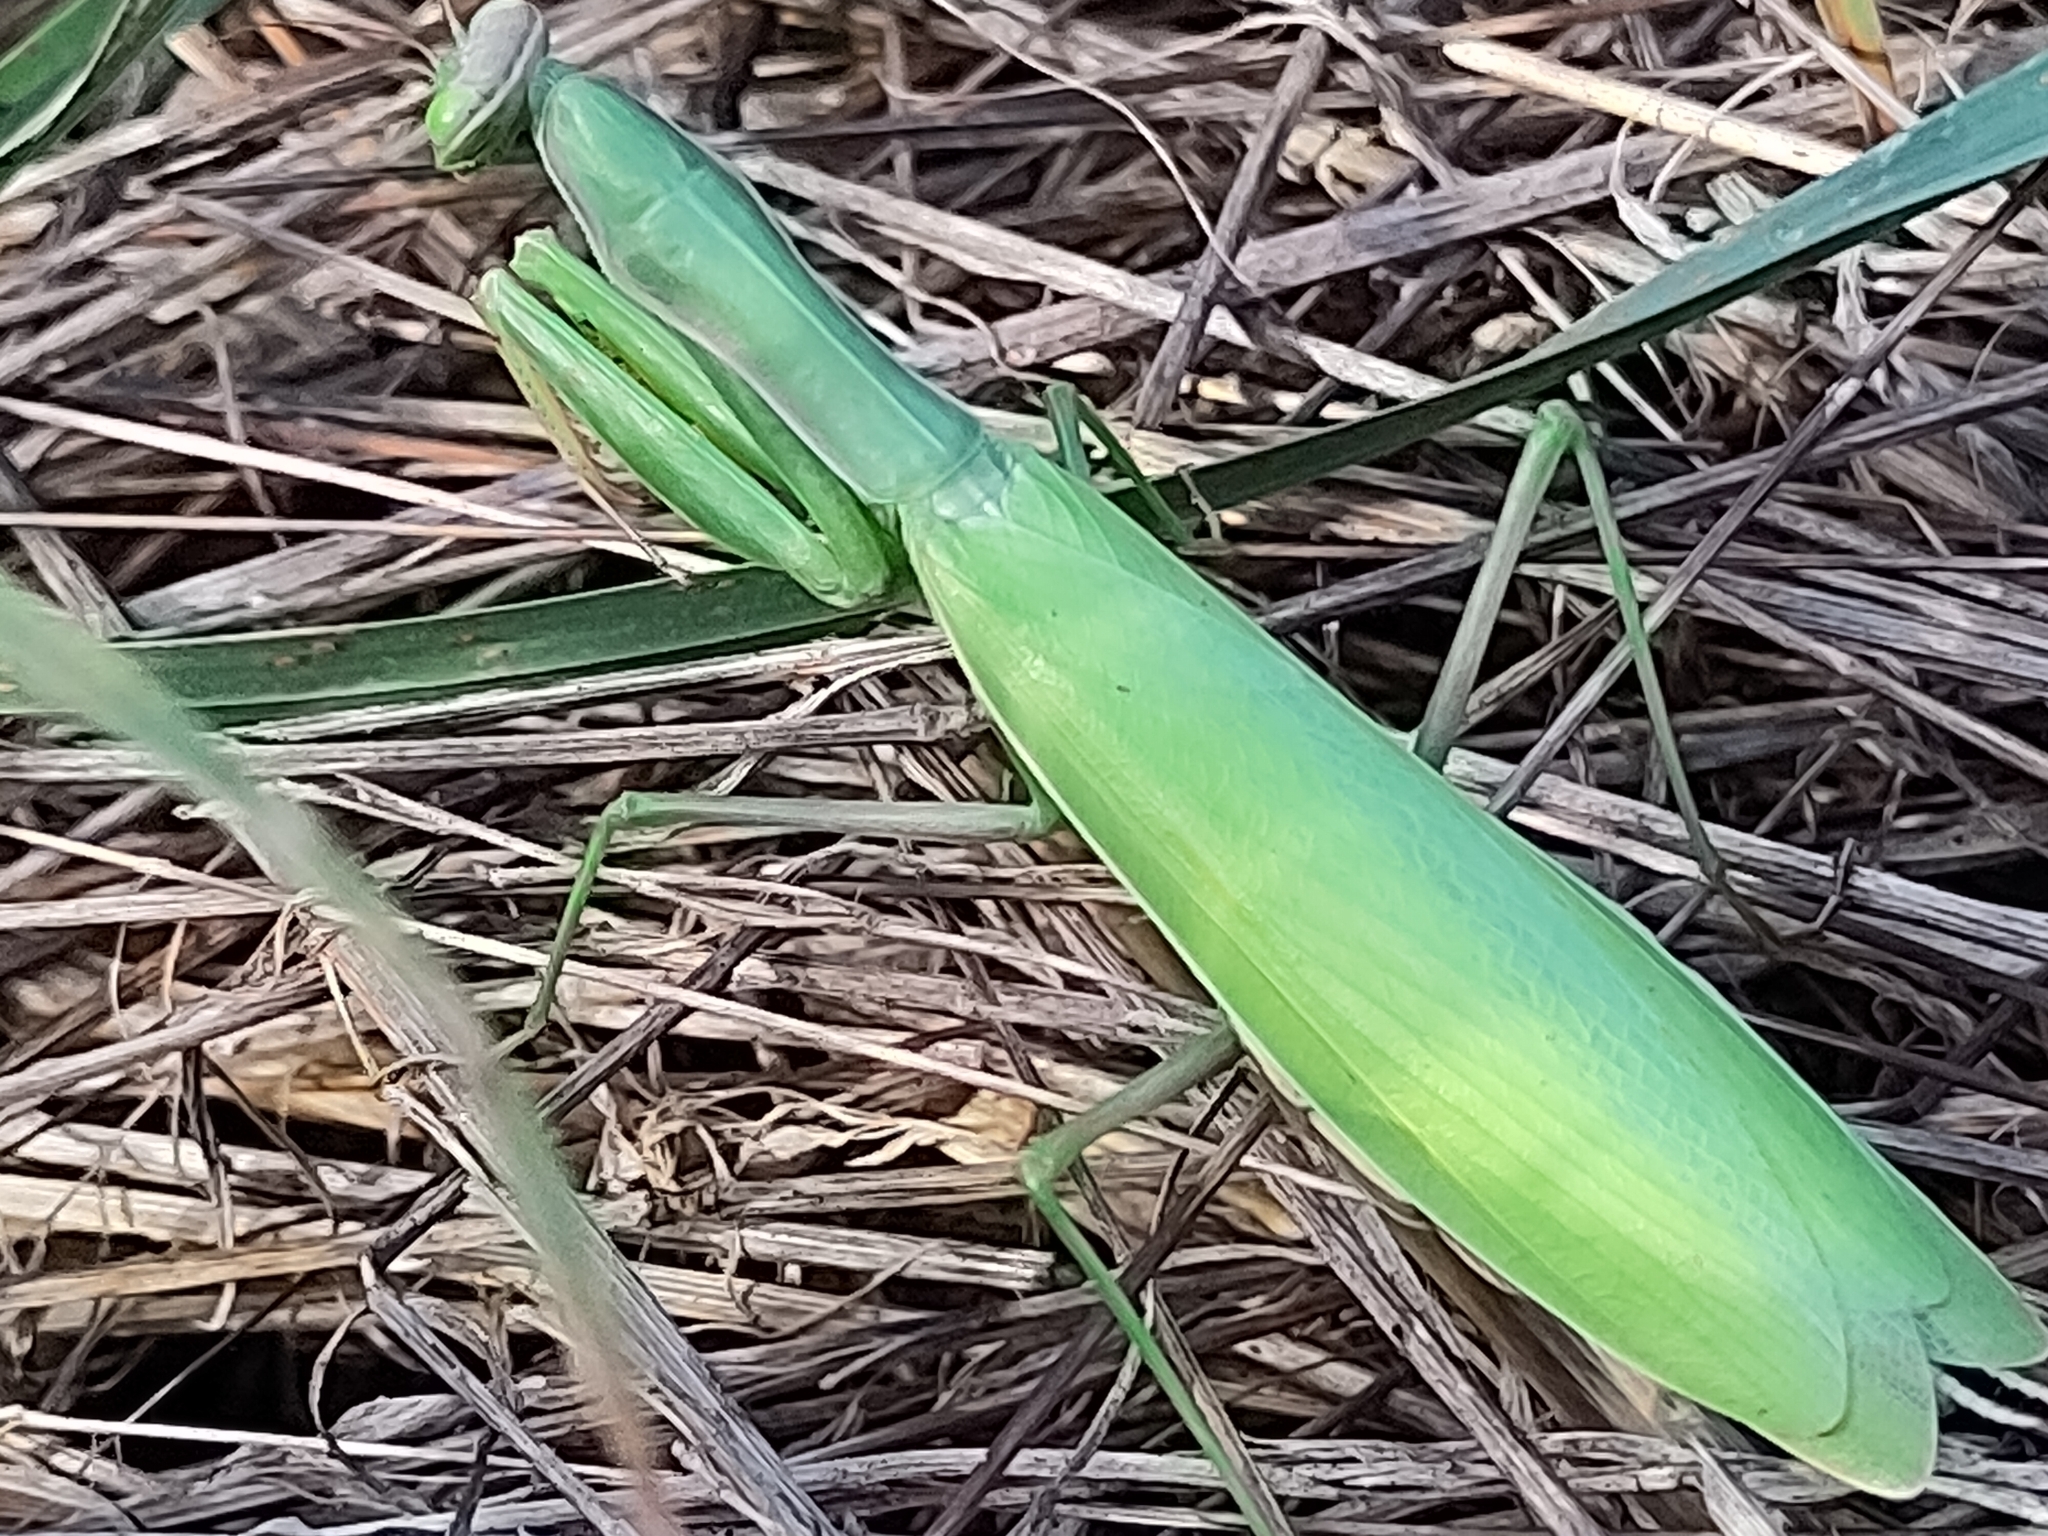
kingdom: Animalia
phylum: Arthropoda
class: Insecta
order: Mantodea
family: Mantidae
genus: Mantis
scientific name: Mantis religiosa
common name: Praying mantis
